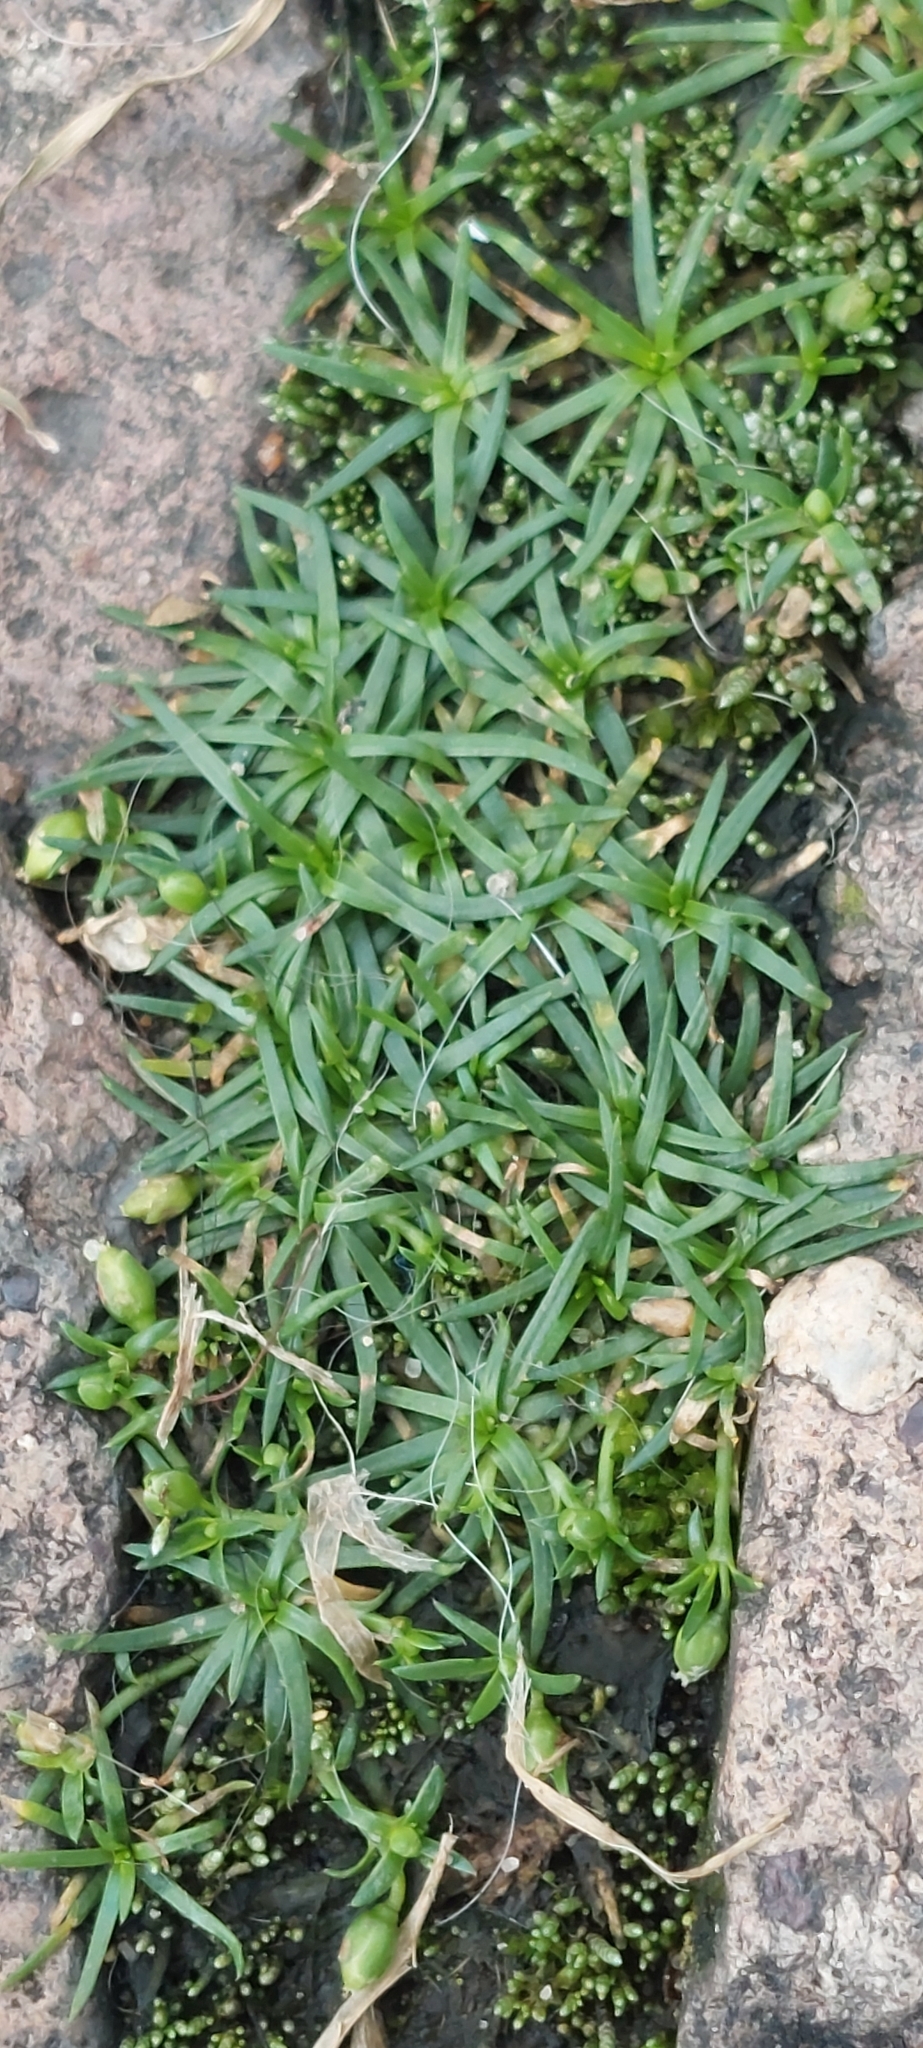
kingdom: Plantae
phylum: Tracheophyta
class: Magnoliopsida
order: Caryophyllales
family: Caryophyllaceae
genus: Sagina
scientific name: Sagina procumbens
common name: Procumbent pearlwort
